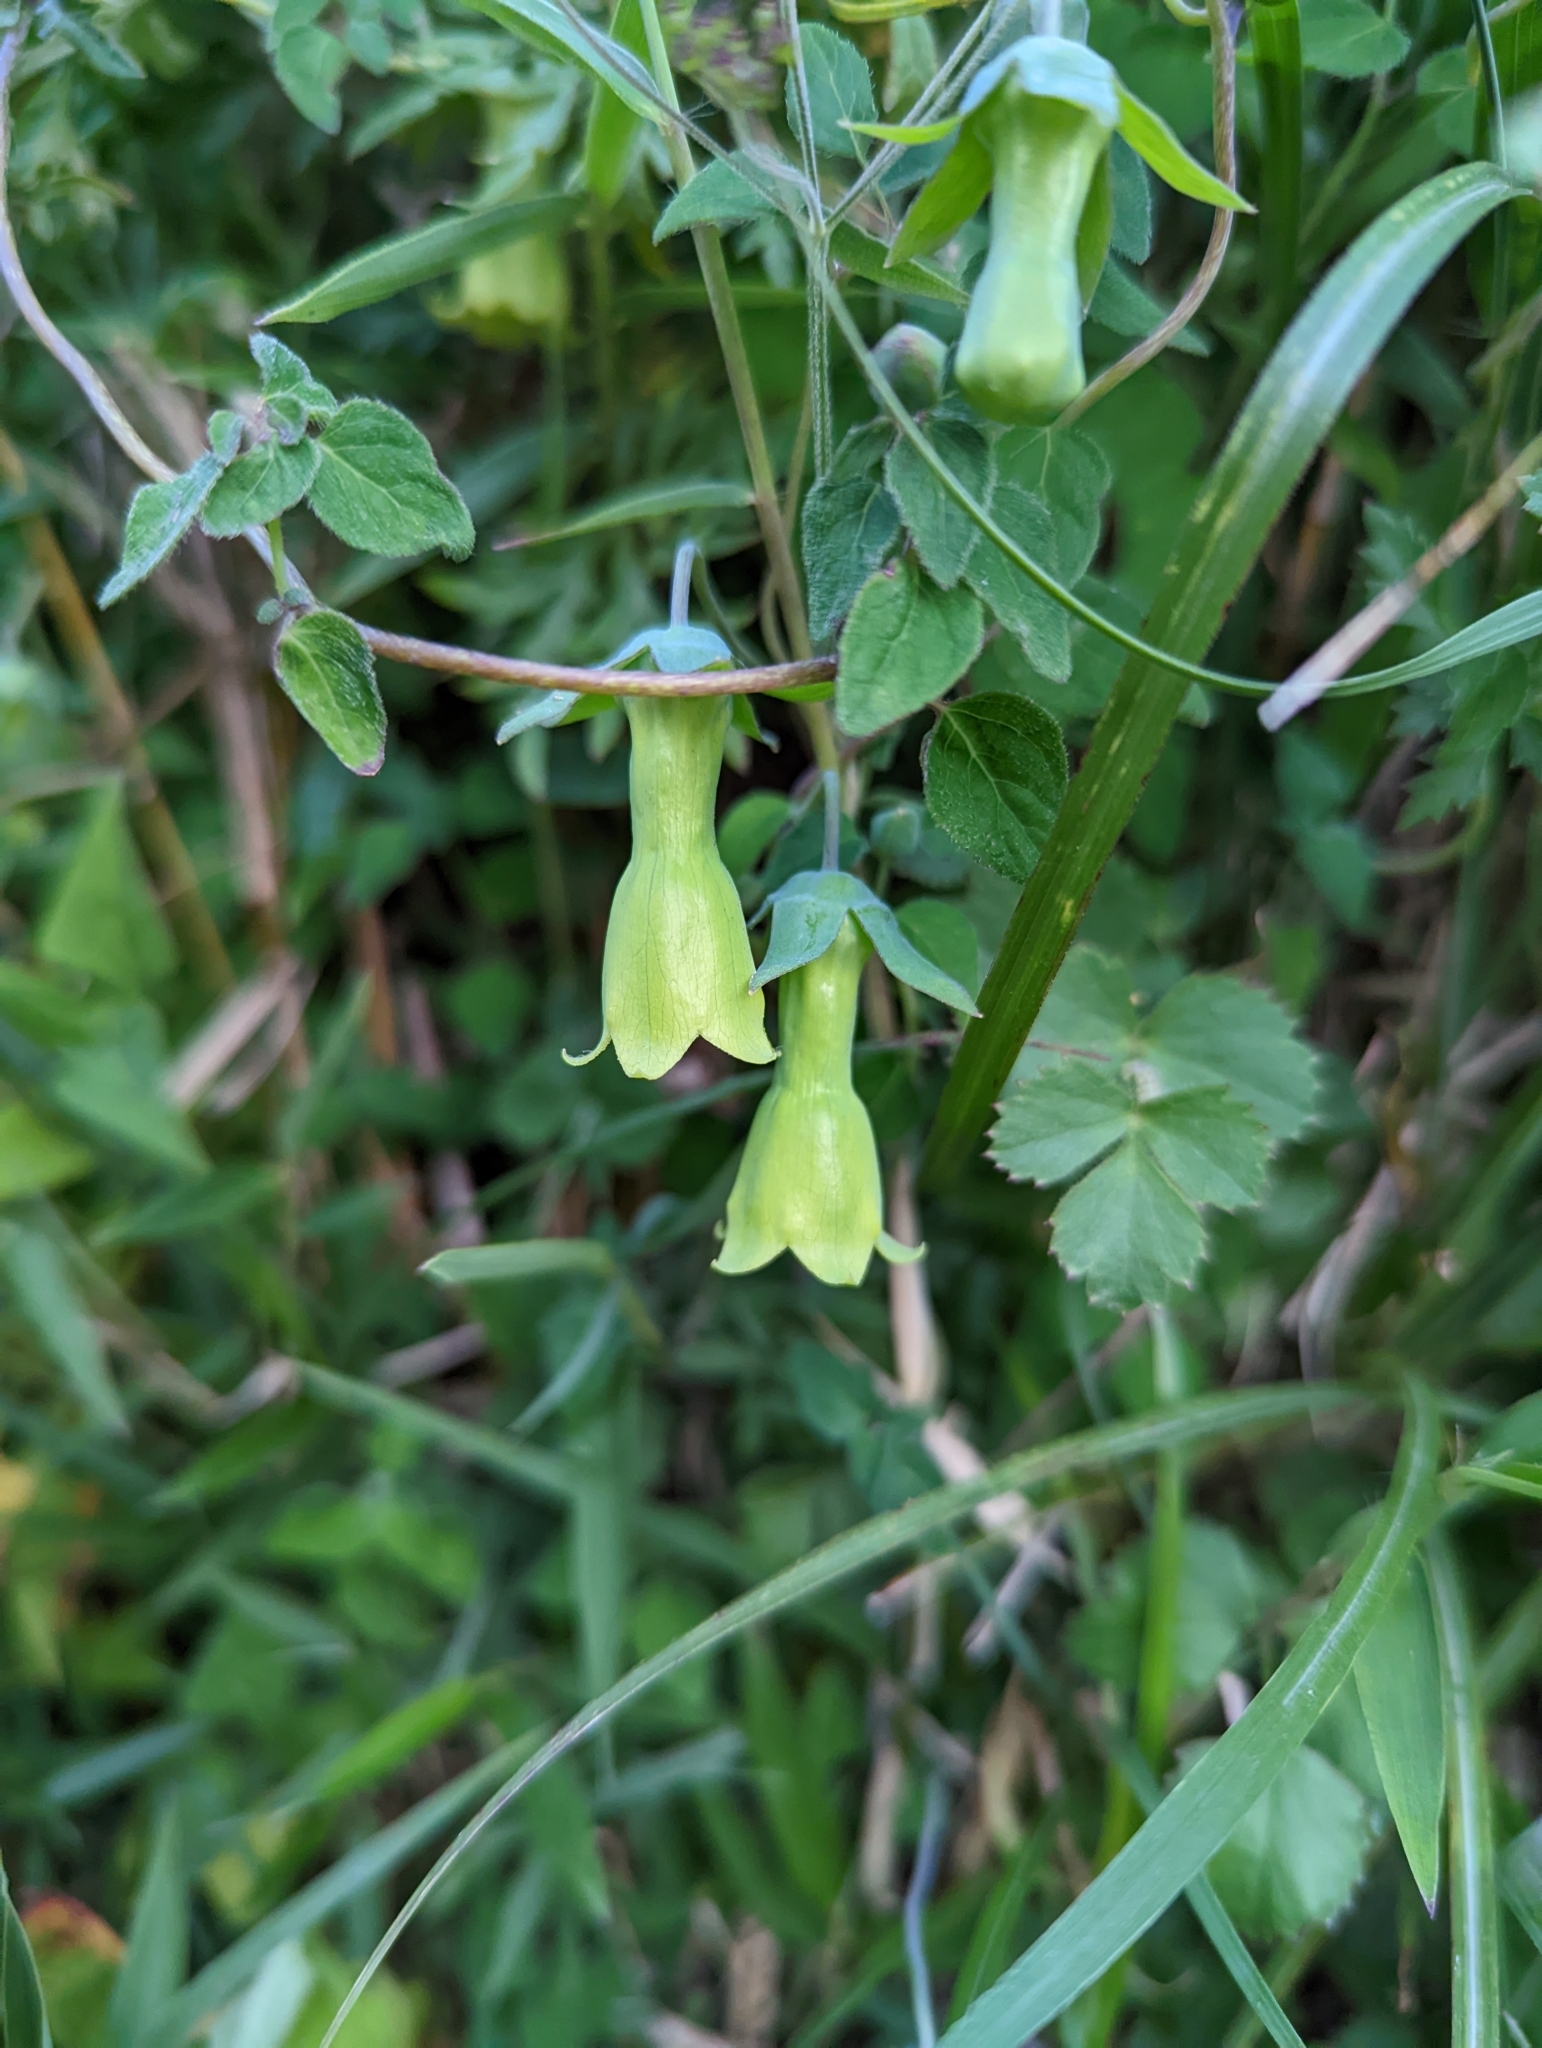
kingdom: Plantae
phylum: Tracheophyta
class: Magnoliopsida
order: Asterales
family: Campanulaceae
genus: Codonopsis
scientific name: Codonopsis kawakamii
